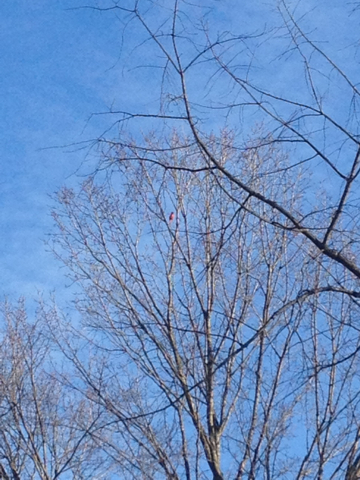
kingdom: Animalia
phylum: Chordata
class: Aves
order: Passeriformes
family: Cardinalidae
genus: Cardinalis
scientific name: Cardinalis cardinalis
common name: Northern cardinal
